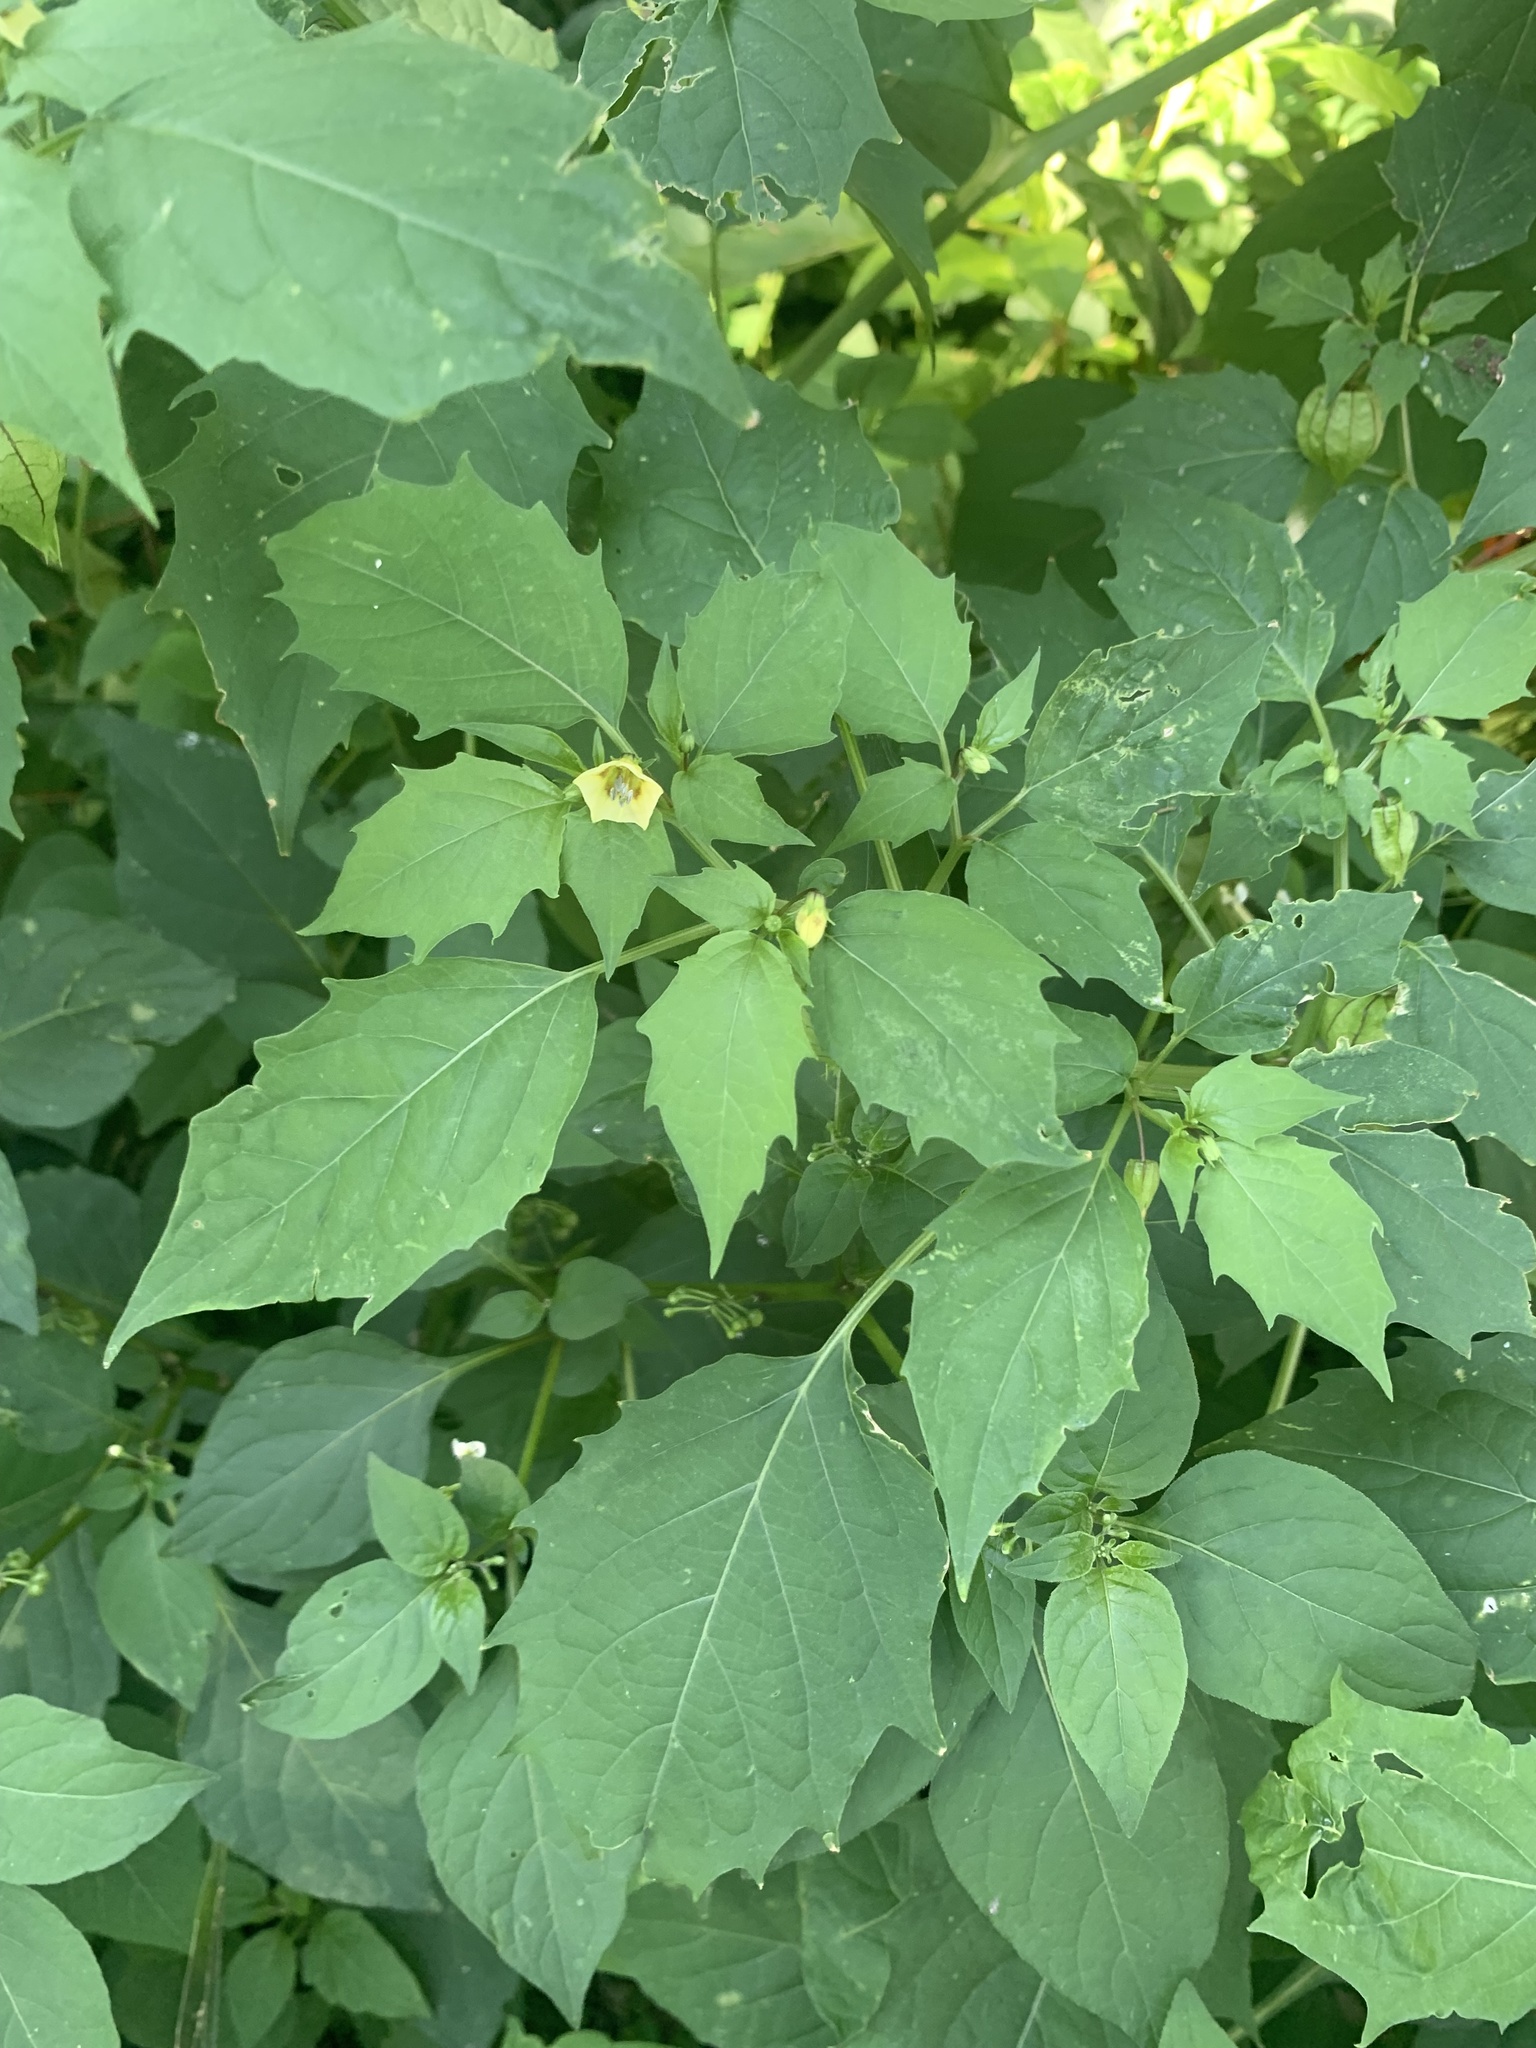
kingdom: Plantae
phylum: Tracheophyta
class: Magnoliopsida
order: Solanales
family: Solanaceae
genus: Physalis
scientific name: Physalis angulata
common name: Angular winter-cherry
